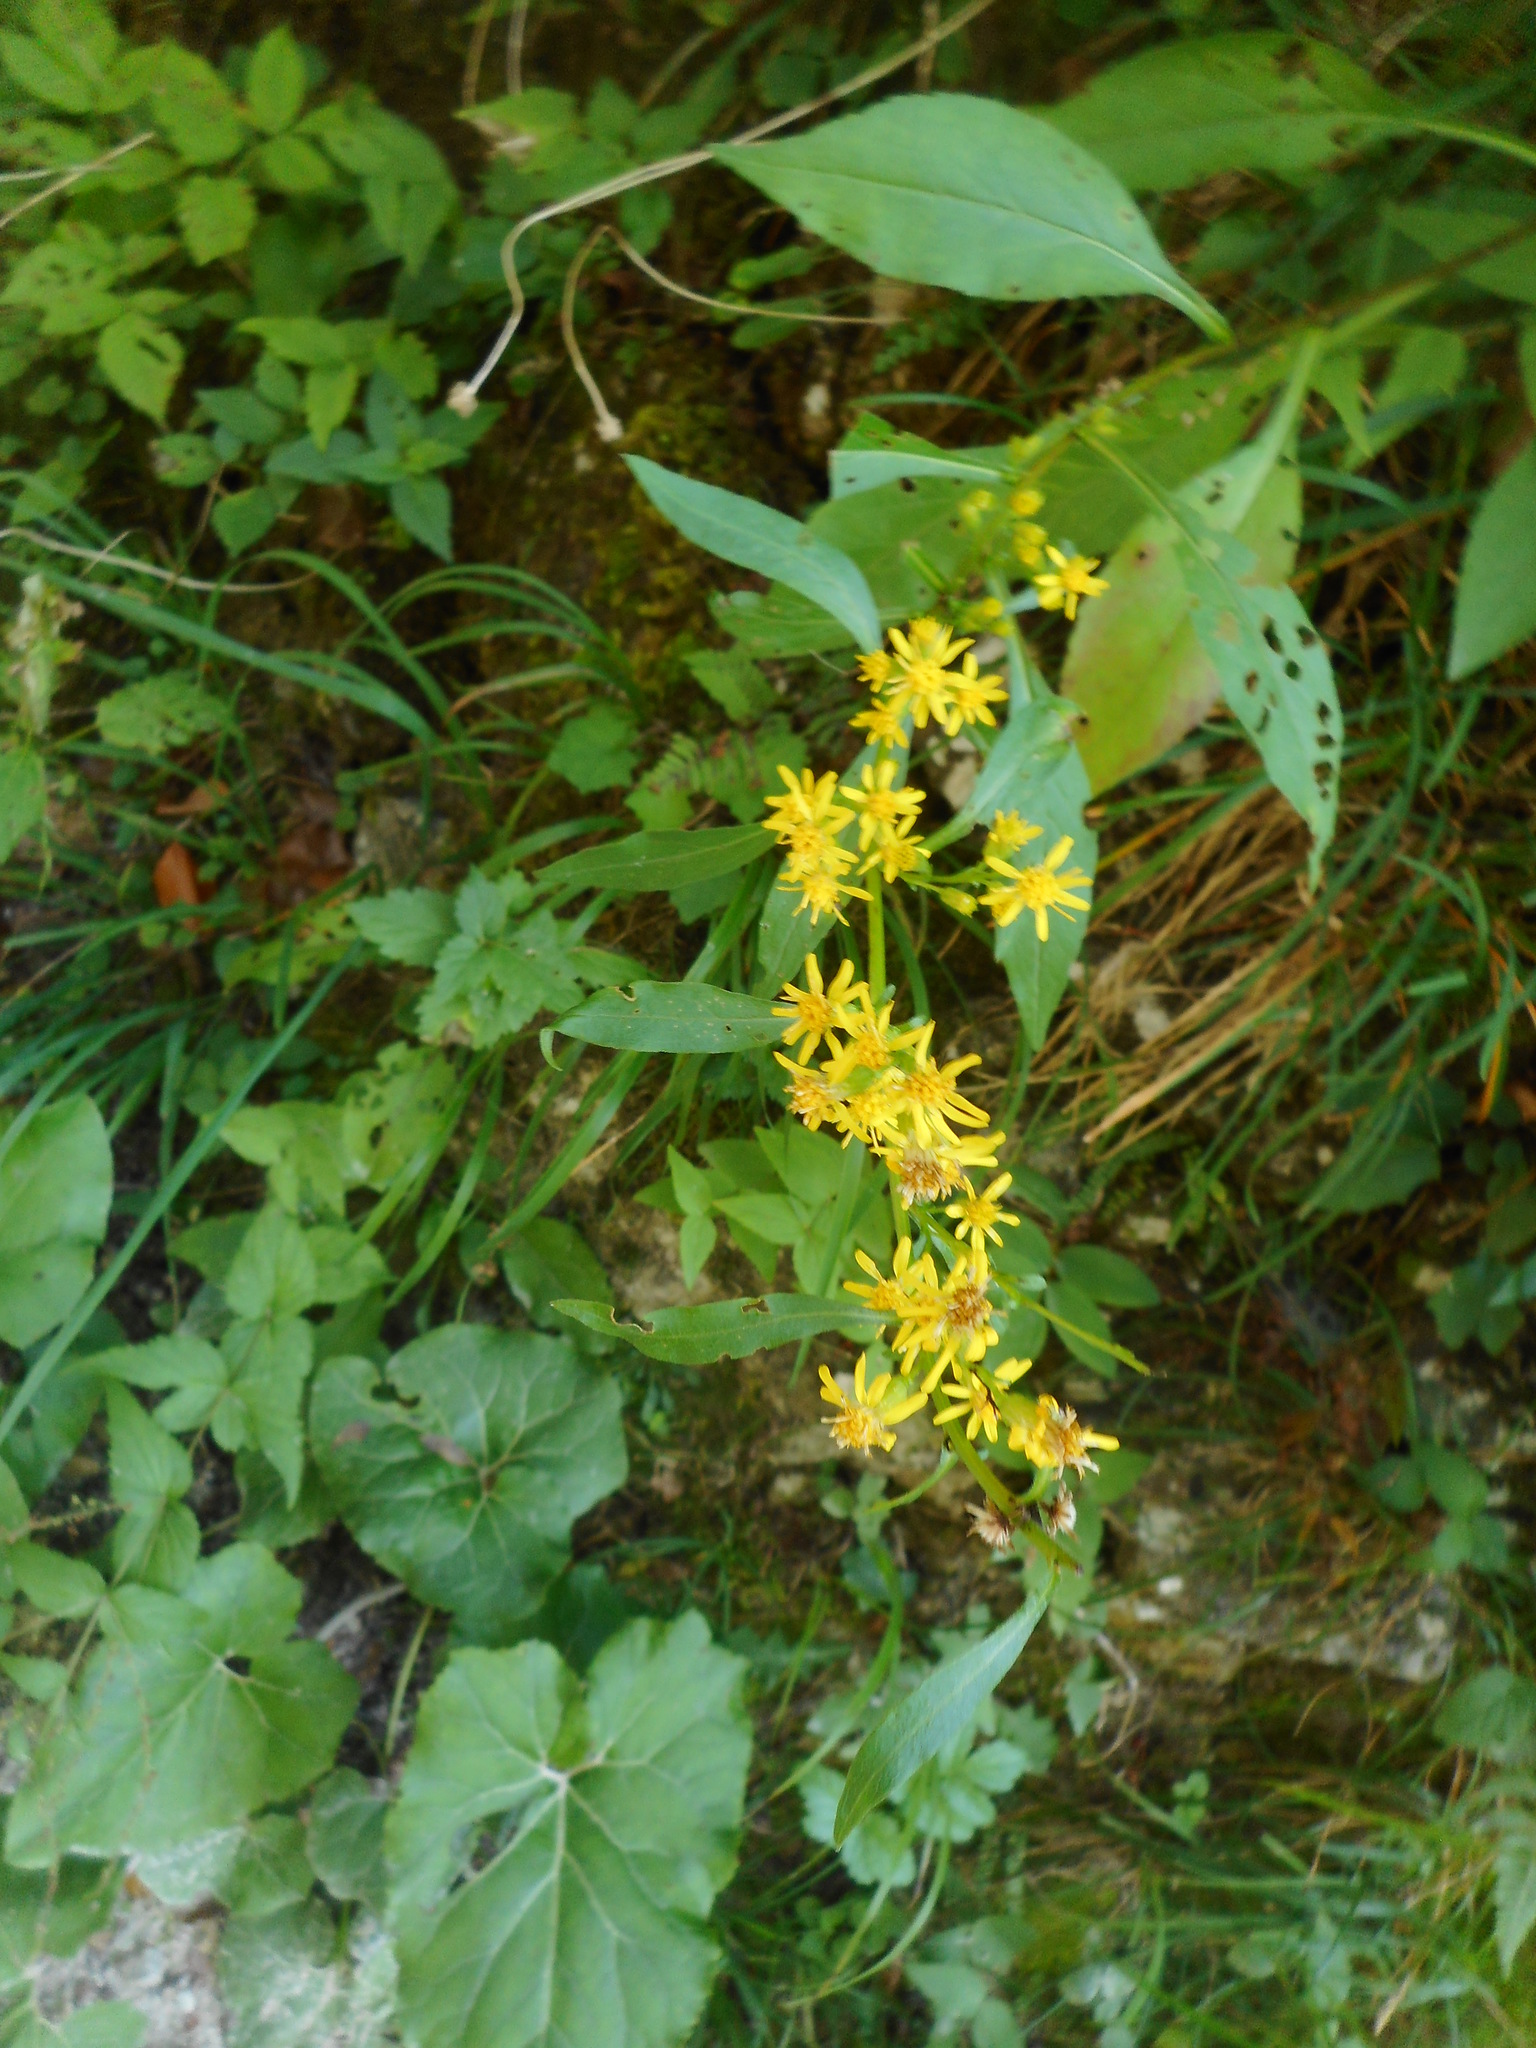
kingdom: Plantae
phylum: Tracheophyta
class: Magnoliopsida
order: Asterales
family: Asteraceae
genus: Solidago
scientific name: Solidago virgaurea
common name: Goldenrod
